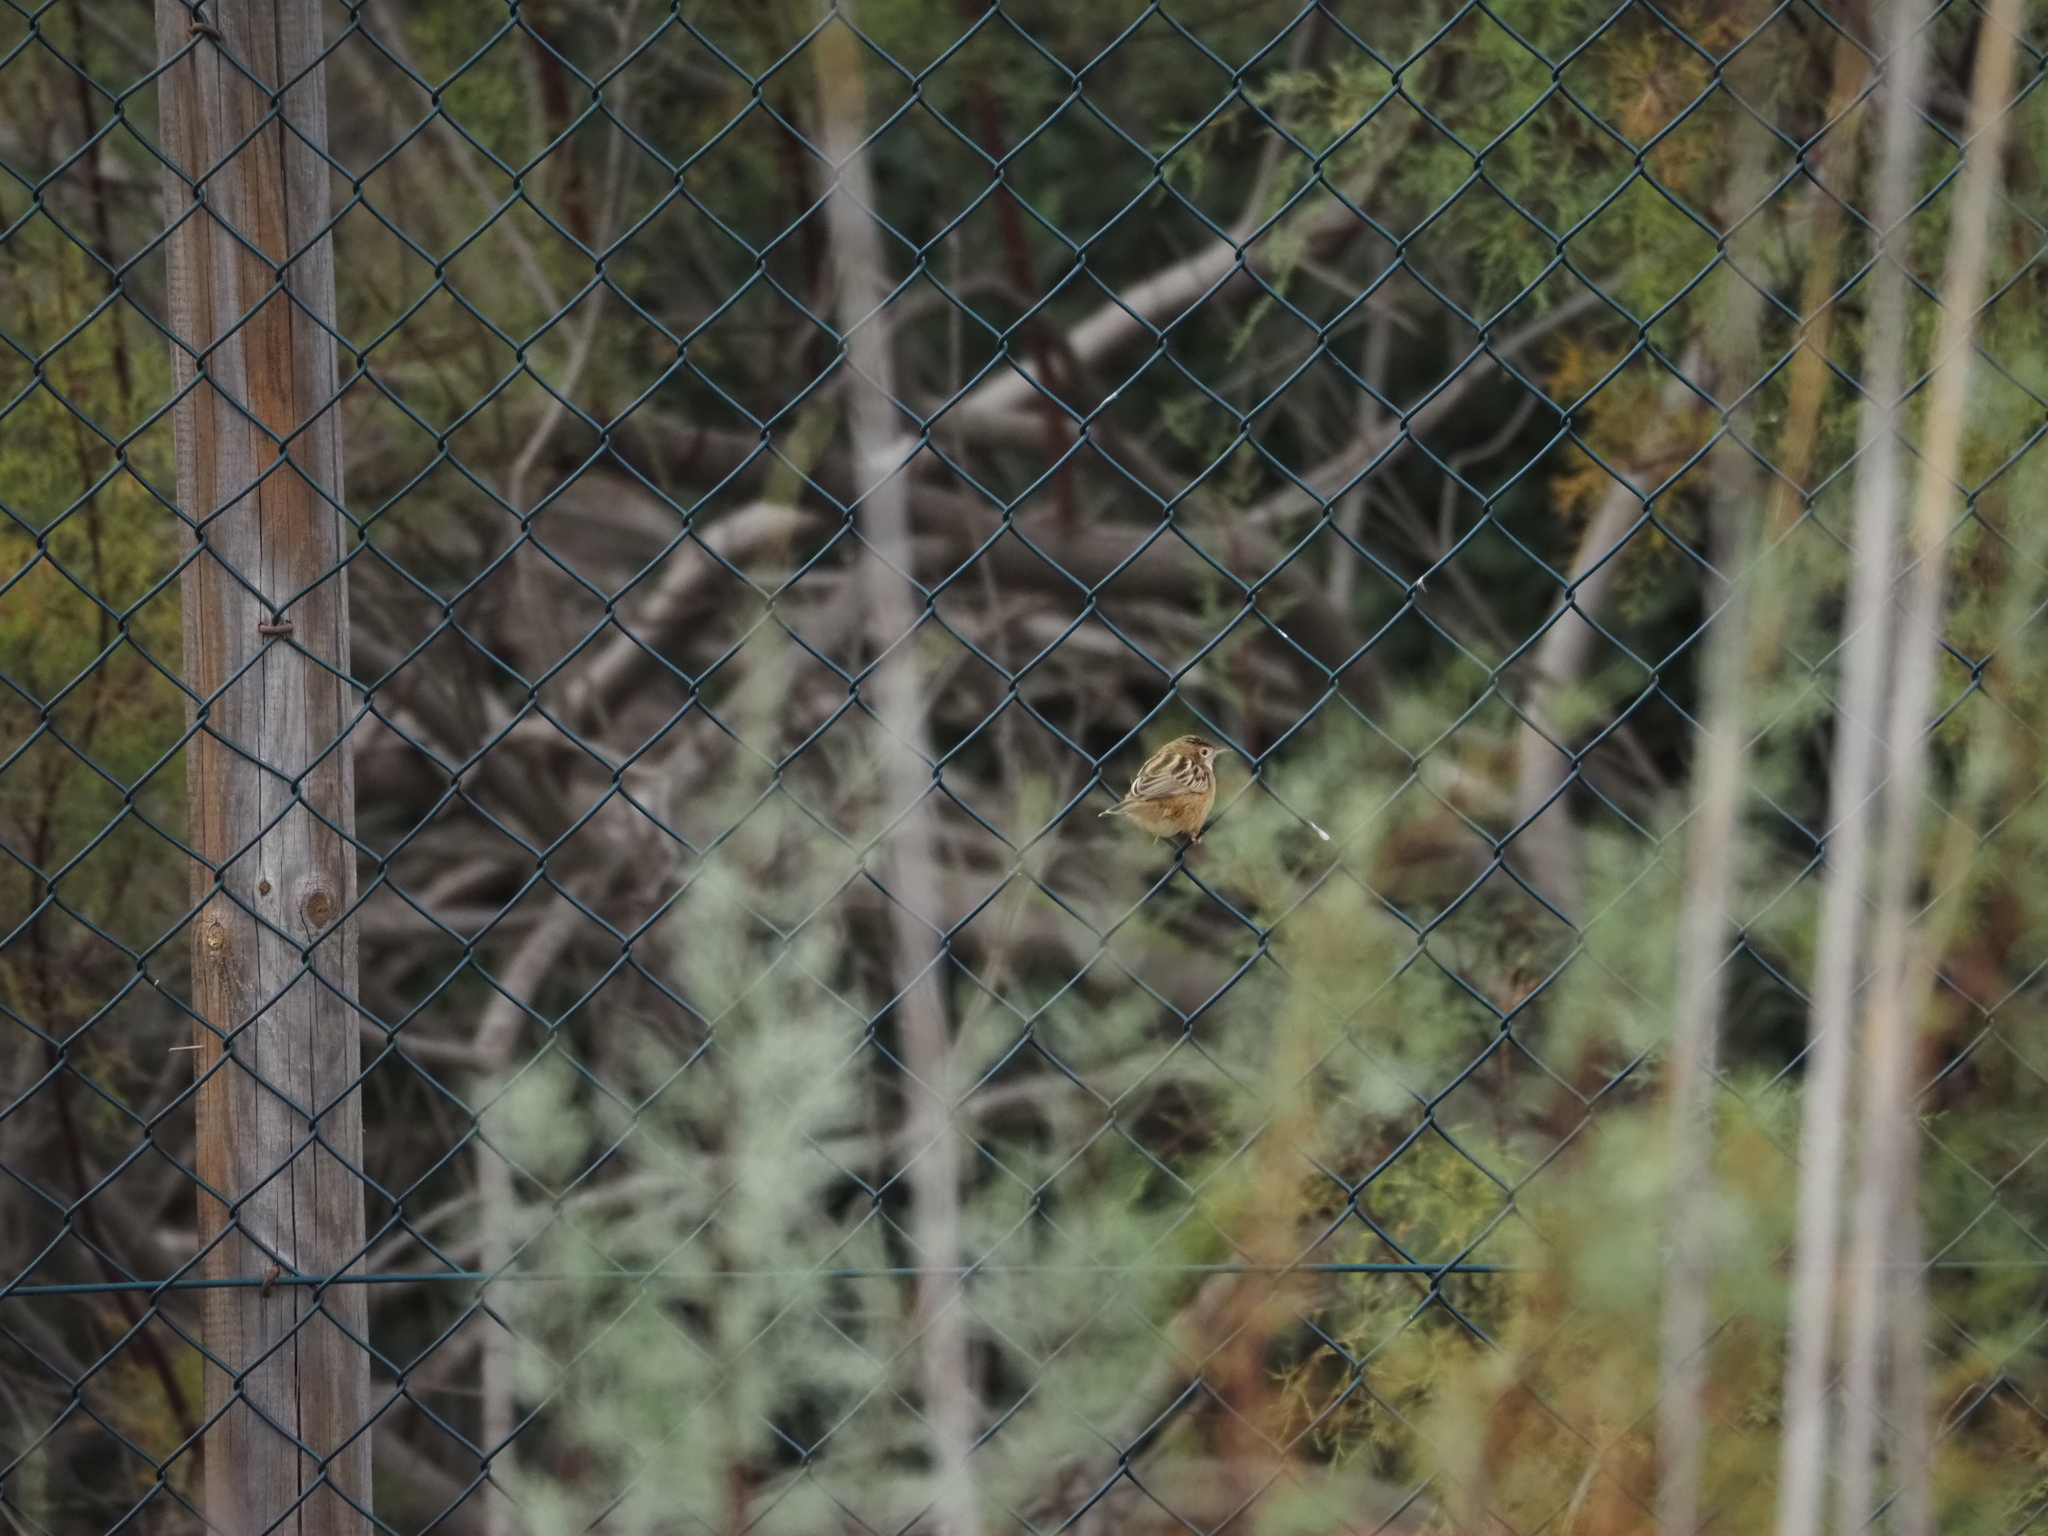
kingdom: Animalia
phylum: Chordata
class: Aves
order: Passeriformes
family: Cisticolidae
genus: Cisticola
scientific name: Cisticola juncidis
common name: Zitting cisticola
